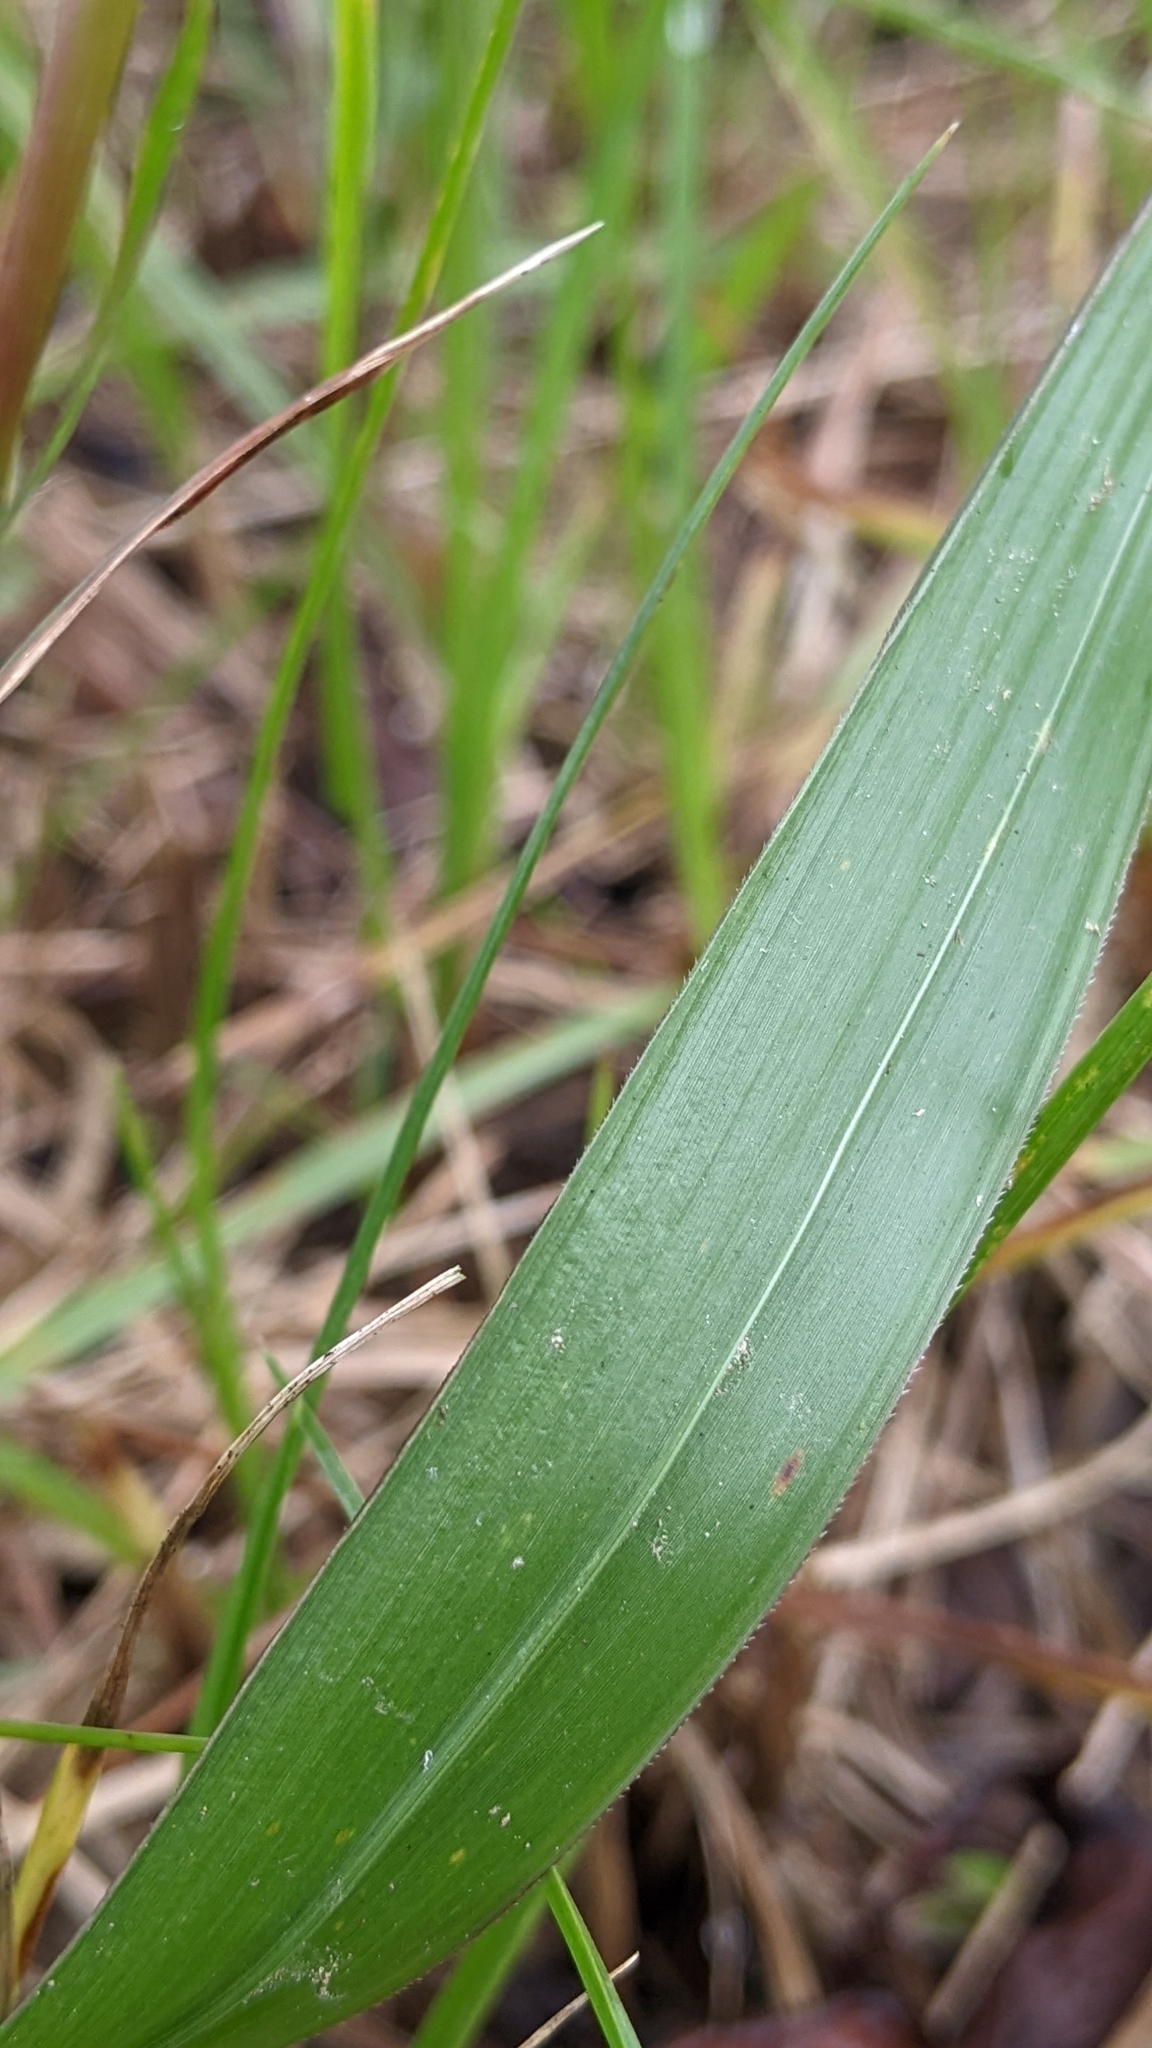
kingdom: Plantae
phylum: Tracheophyta
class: Liliopsida
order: Poales
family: Poaceae
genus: Imperata
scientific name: Imperata cylindrica
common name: Cogongrass
